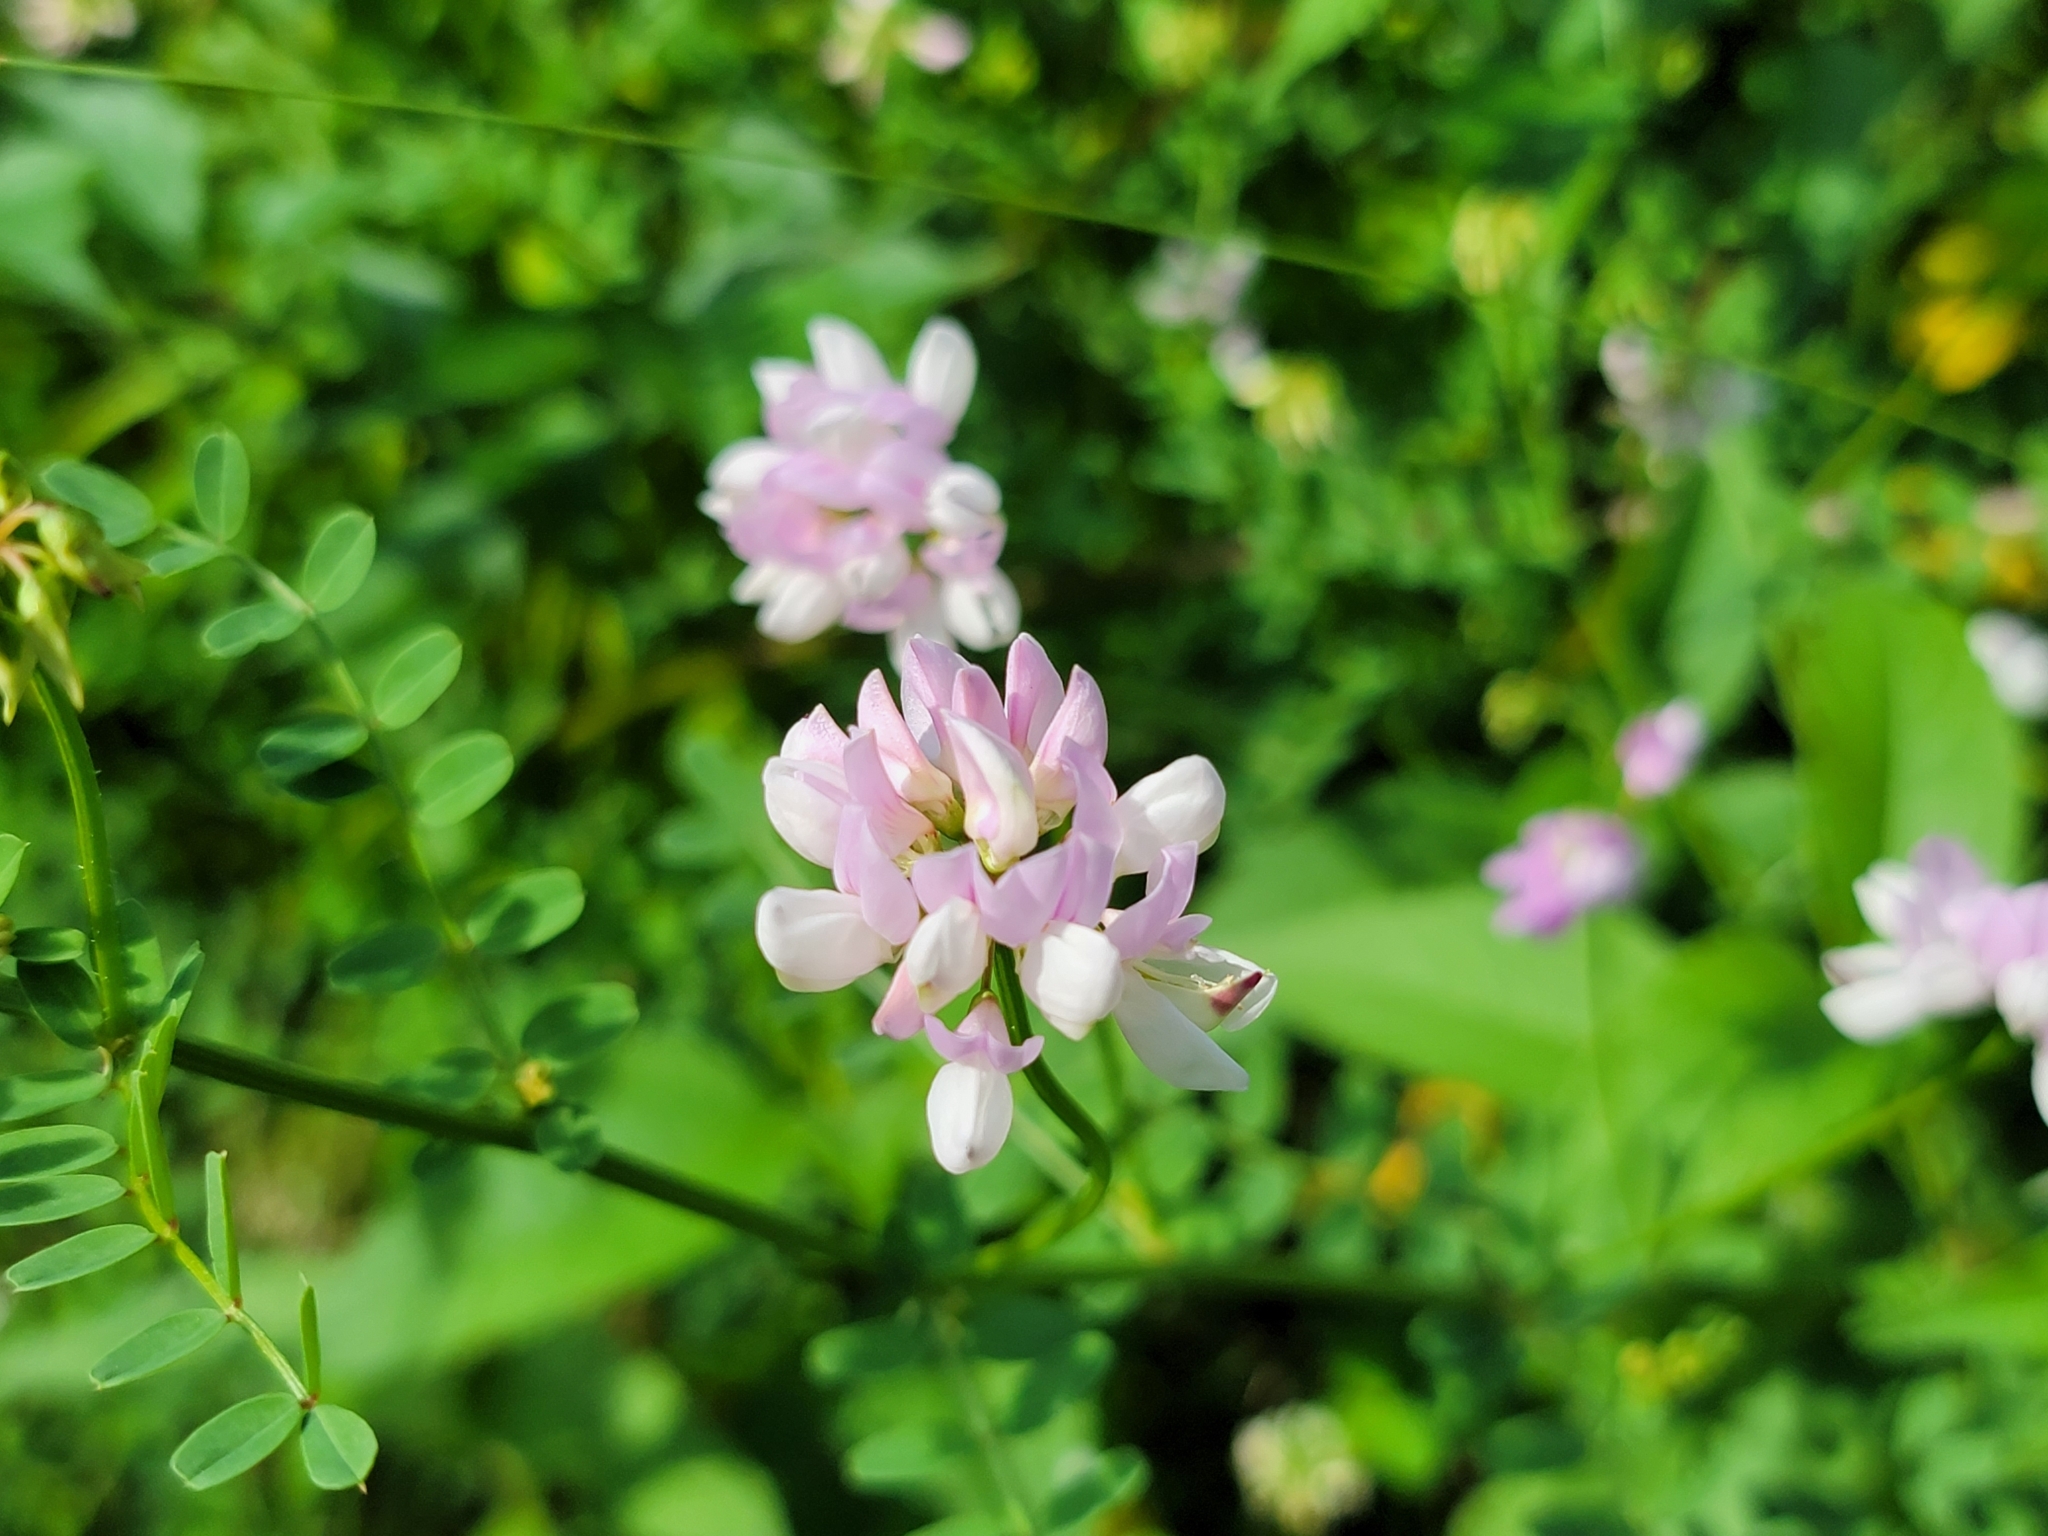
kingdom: Plantae
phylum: Tracheophyta
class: Magnoliopsida
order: Fabales
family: Fabaceae
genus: Coronilla
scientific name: Coronilla varia
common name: Crownvetch
